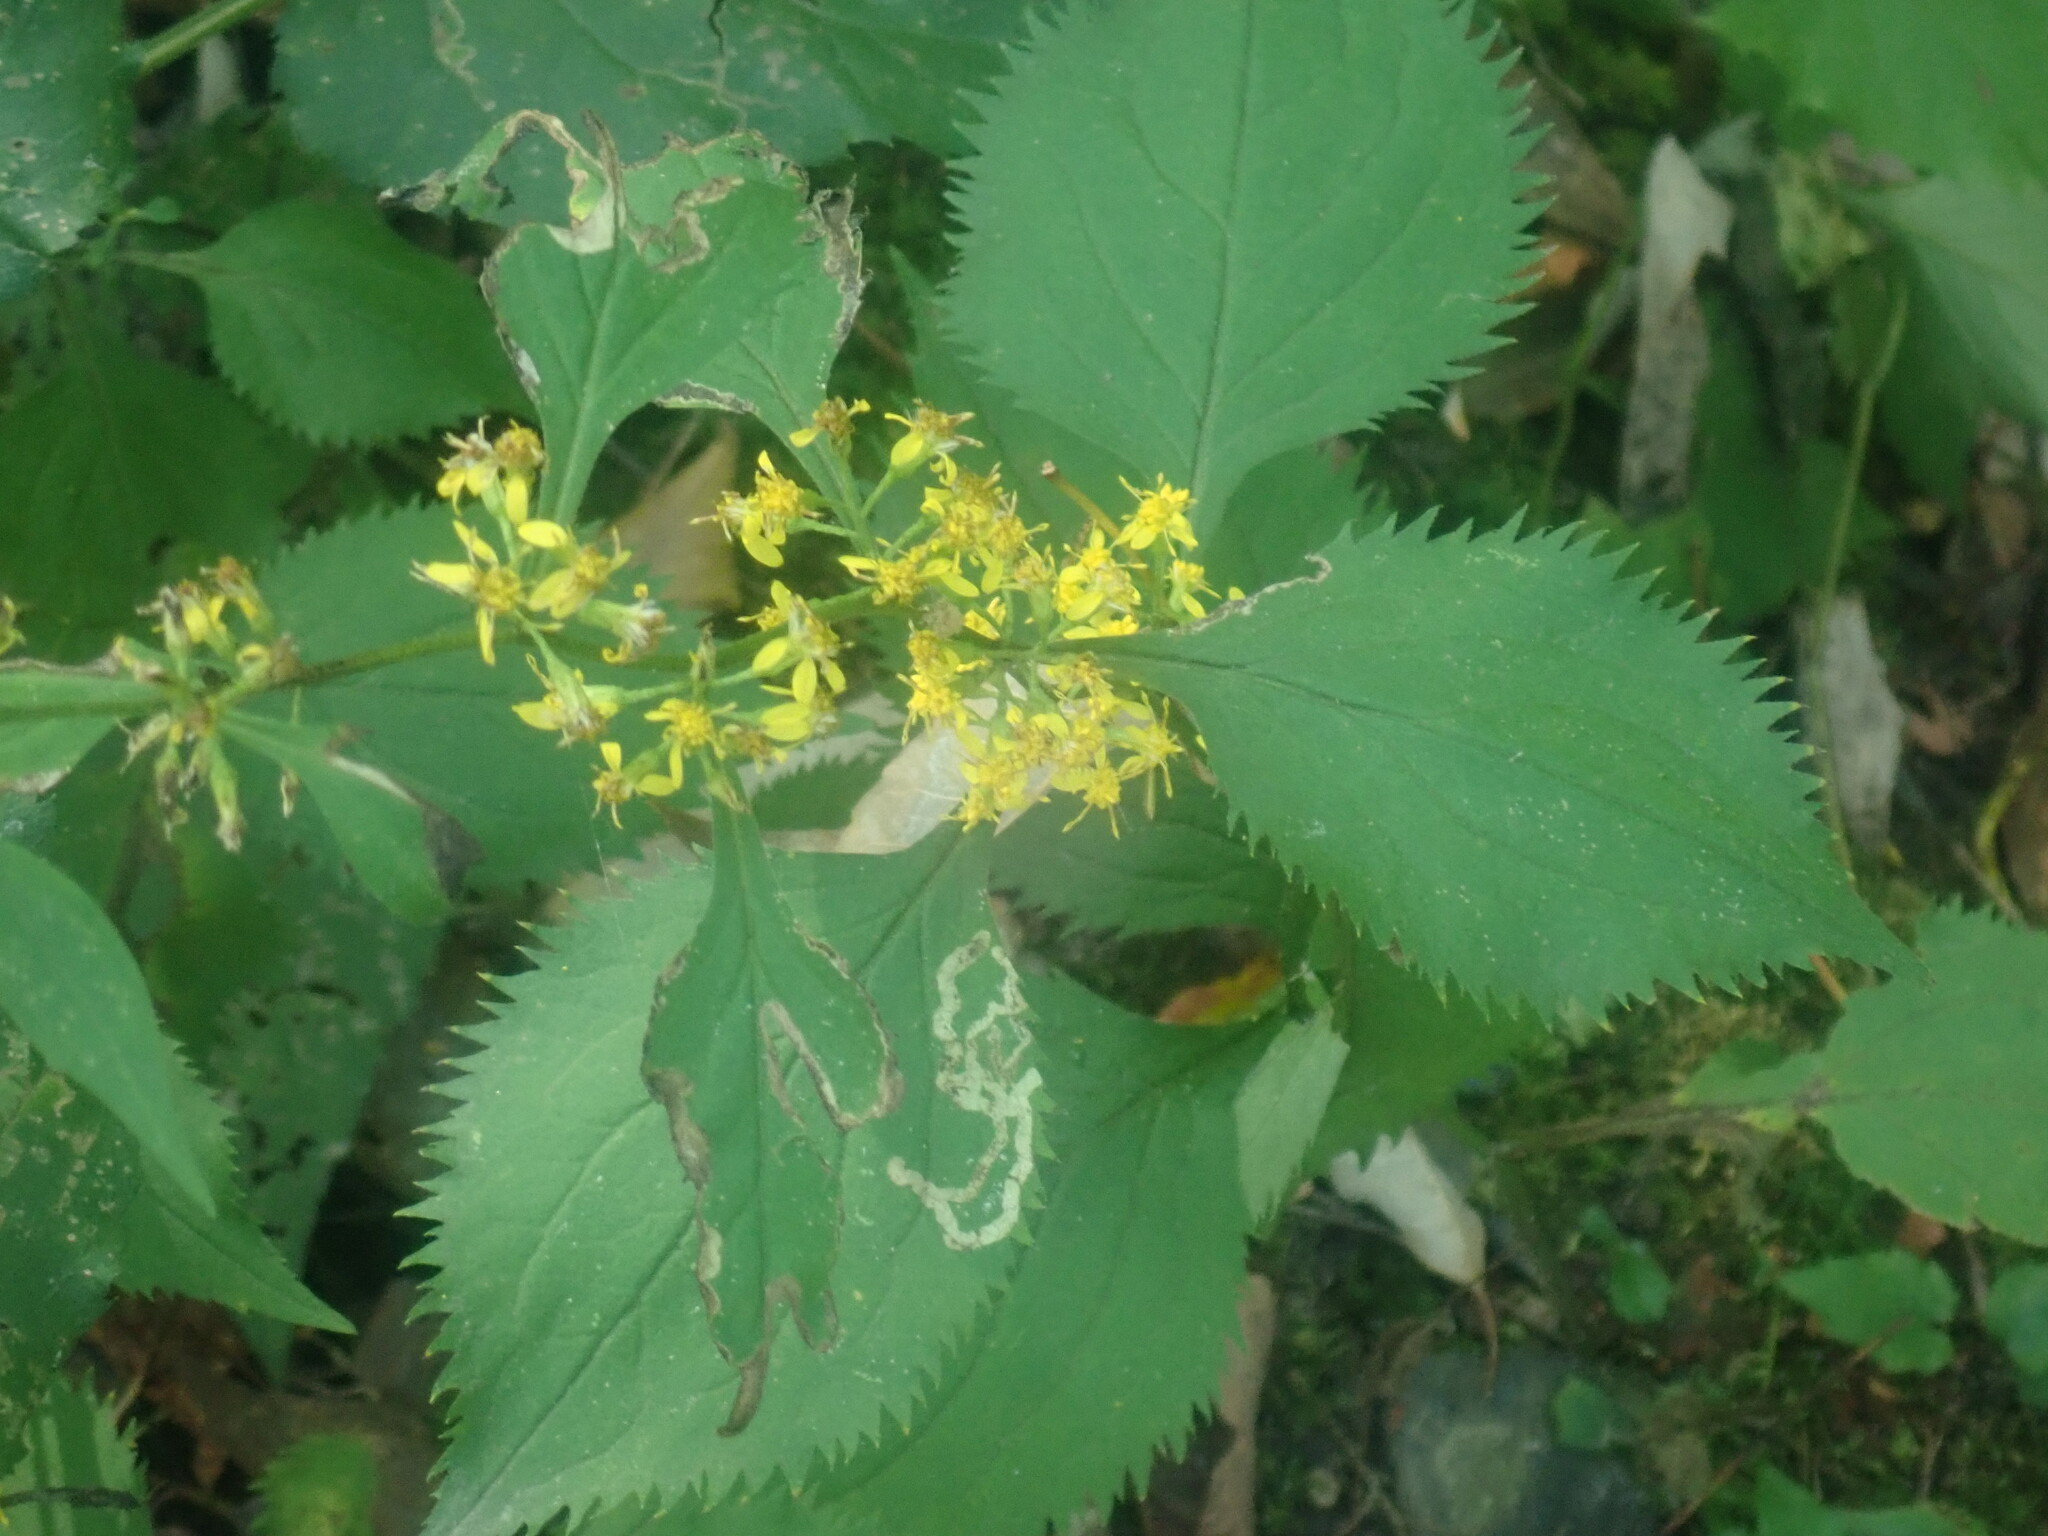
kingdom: Plantae
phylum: Tracheophyta
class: Magnoliopsida
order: Asterales
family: Asteraceae
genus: Solidago
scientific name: Solidago flexicaulis
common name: Zig-zag goldenrod
